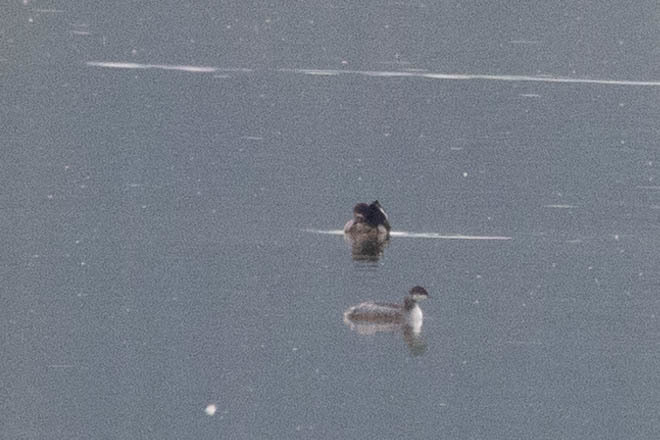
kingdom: Animalia
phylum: Chordata
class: Aves
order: Podicipediformes
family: Podicipedidae
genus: Podiceps
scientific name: Podiceps auritus
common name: Horned grebe
